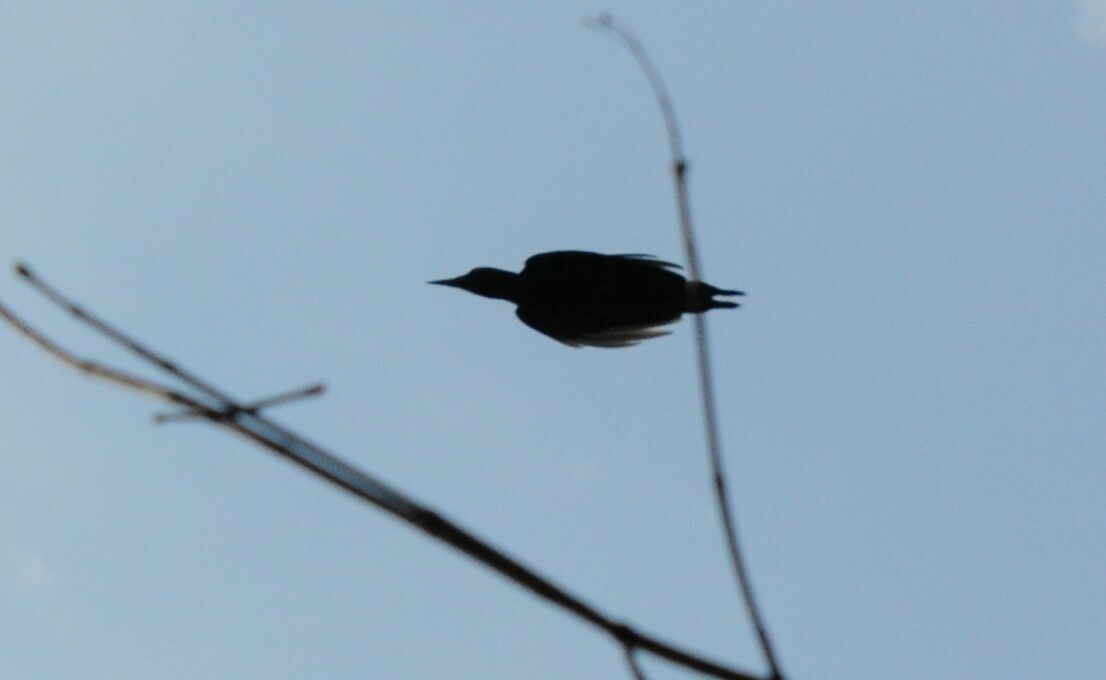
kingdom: Animalia
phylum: Chordata
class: Aves
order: Piciformes
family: Picidae
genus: Dryocopus
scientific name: Dryocopus martius
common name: Black woodpecker
